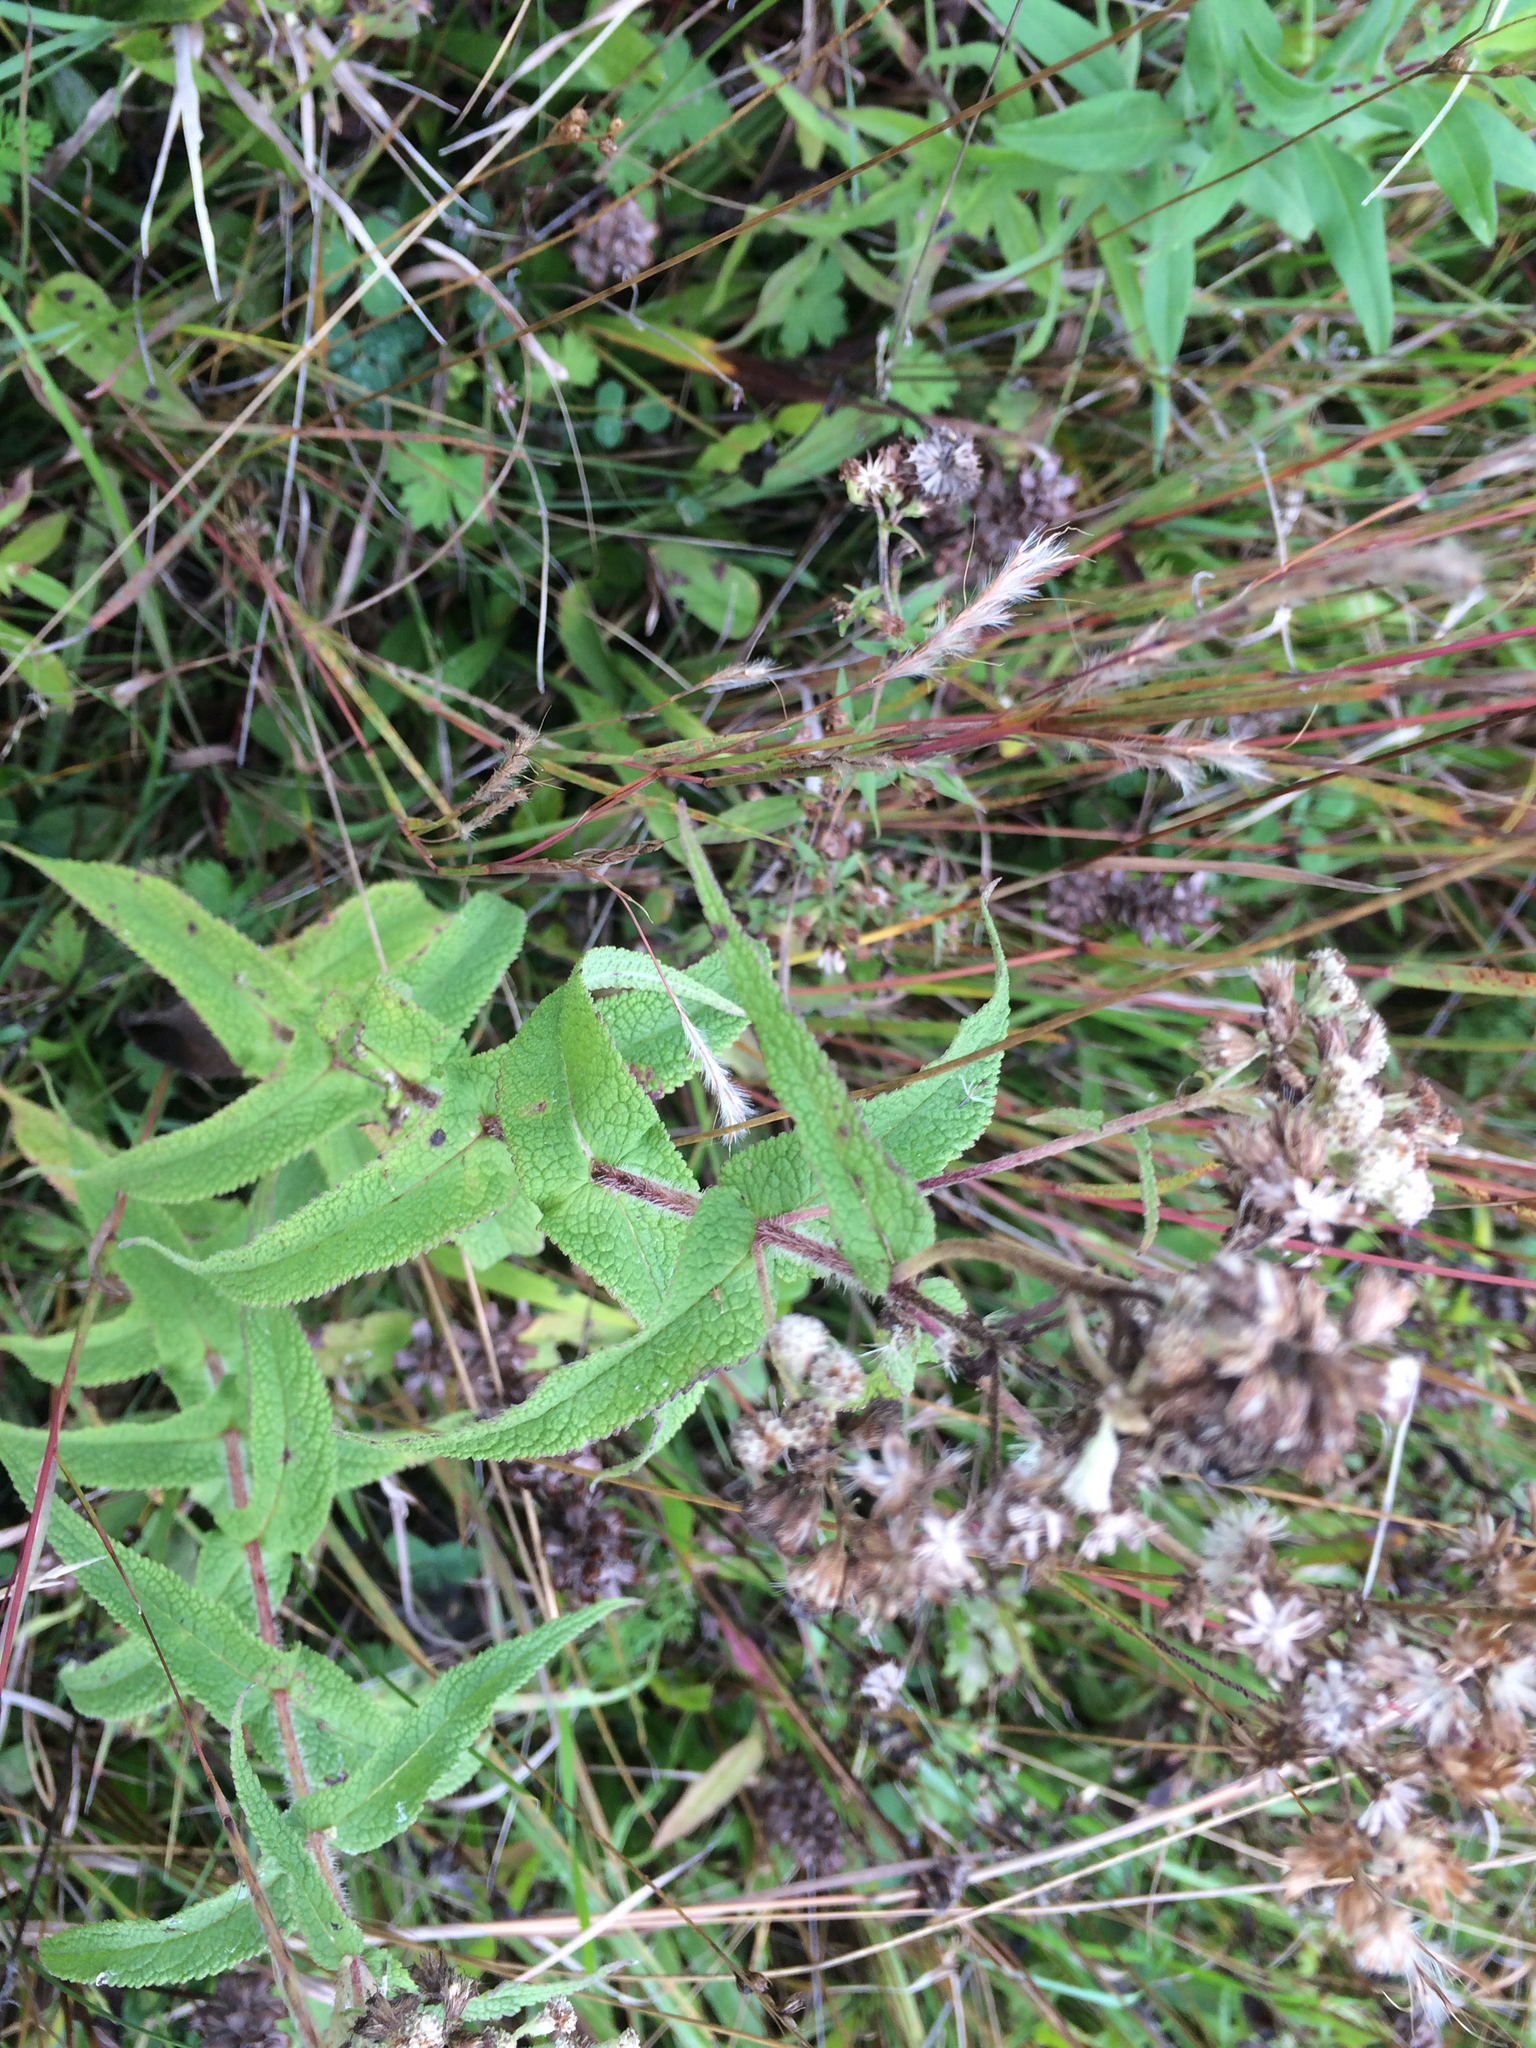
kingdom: Plantae
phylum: Tracheophyta
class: Magnoliopsida
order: Asterales
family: Asteraceae
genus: Eupatorium
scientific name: Eupatorium perfoliatum
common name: Boneset
